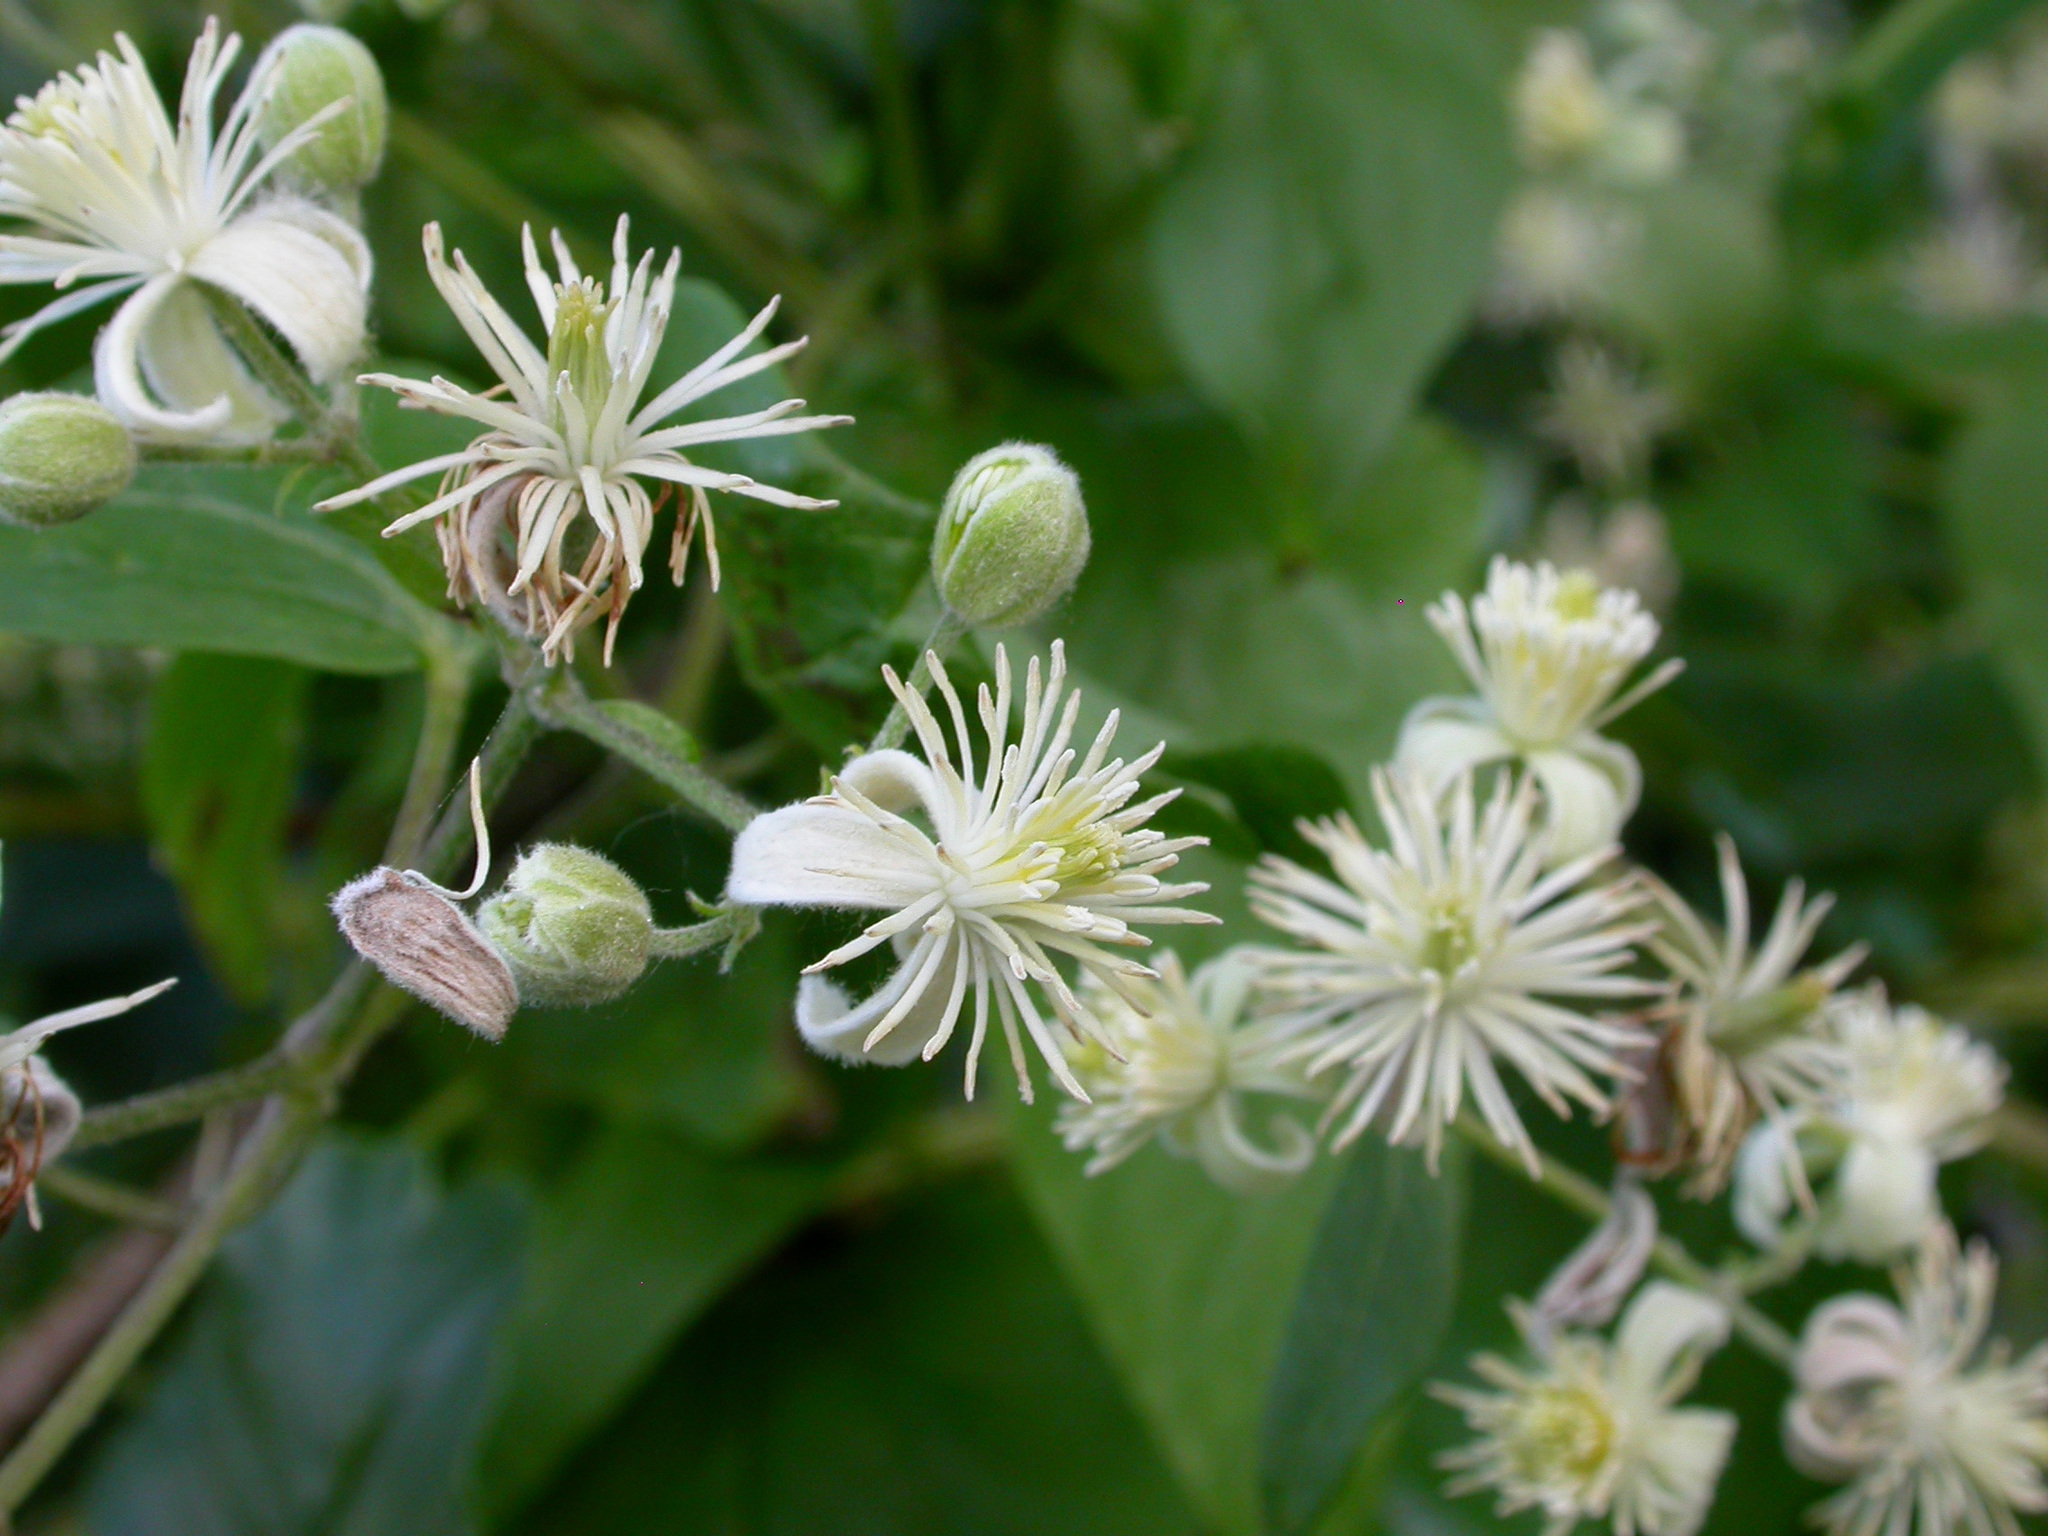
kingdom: Plantae
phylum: Tracheophyta
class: Magnoliopsida
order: Ranunculales
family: Ranunculaceae
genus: Clematis
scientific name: Clematis vitalba
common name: Evergreen clematis
